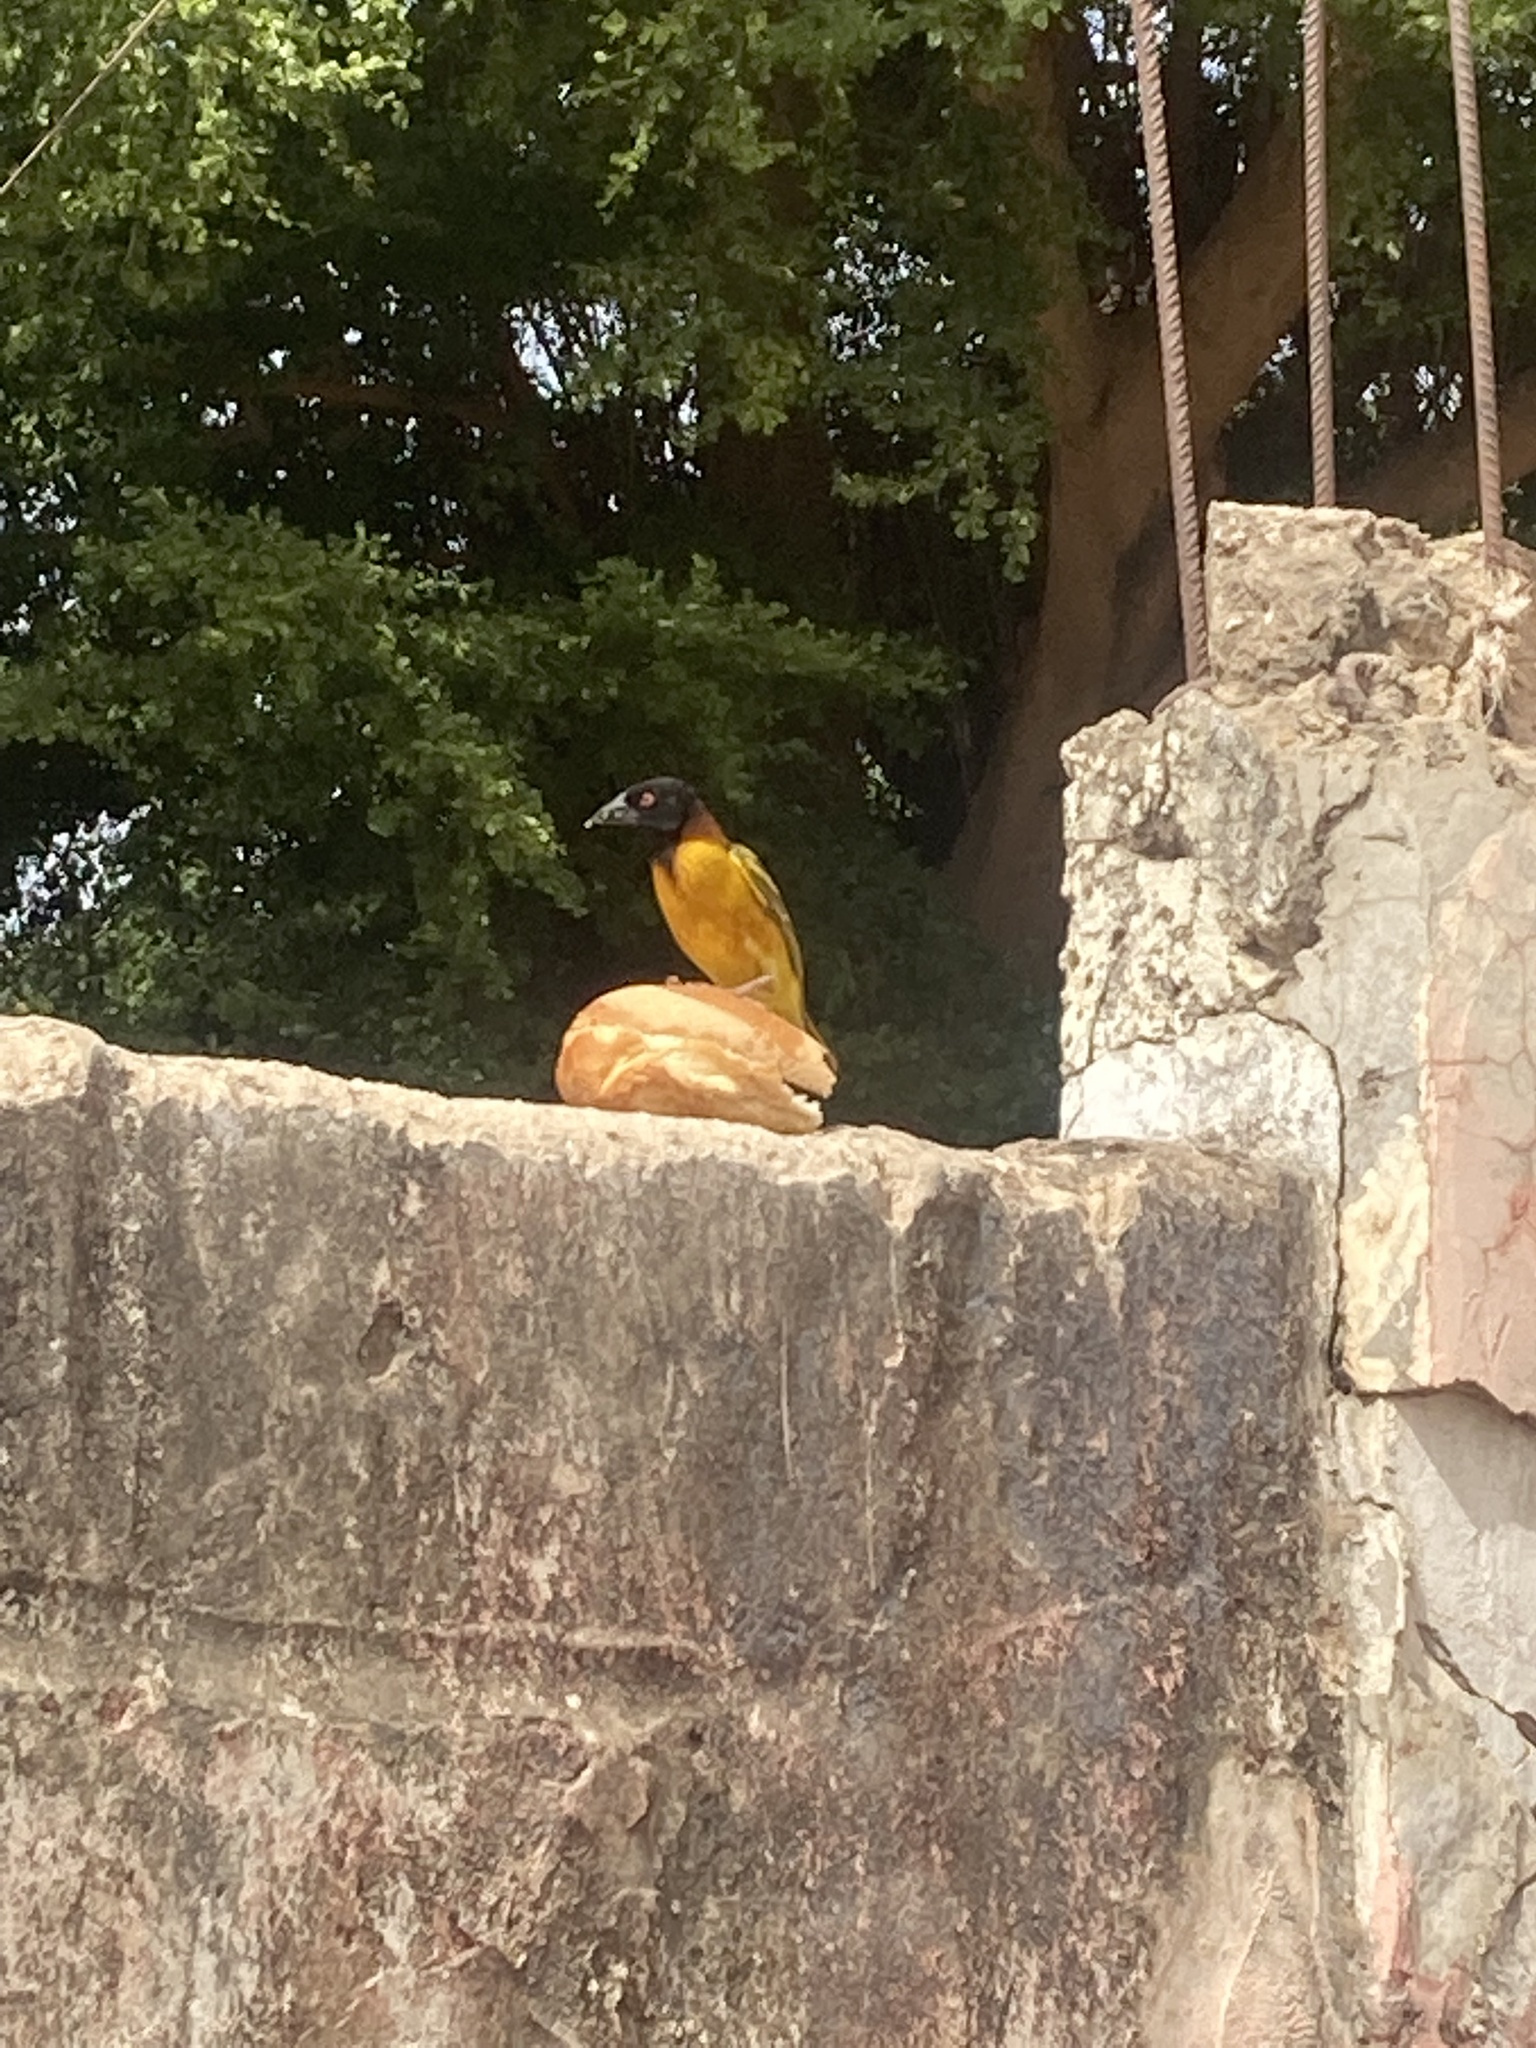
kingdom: Animalia
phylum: Chordata
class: Aves
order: Passeriformes
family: Ploceidae
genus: Ploceus
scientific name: Ploceus cucullatus
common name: Village weaver
